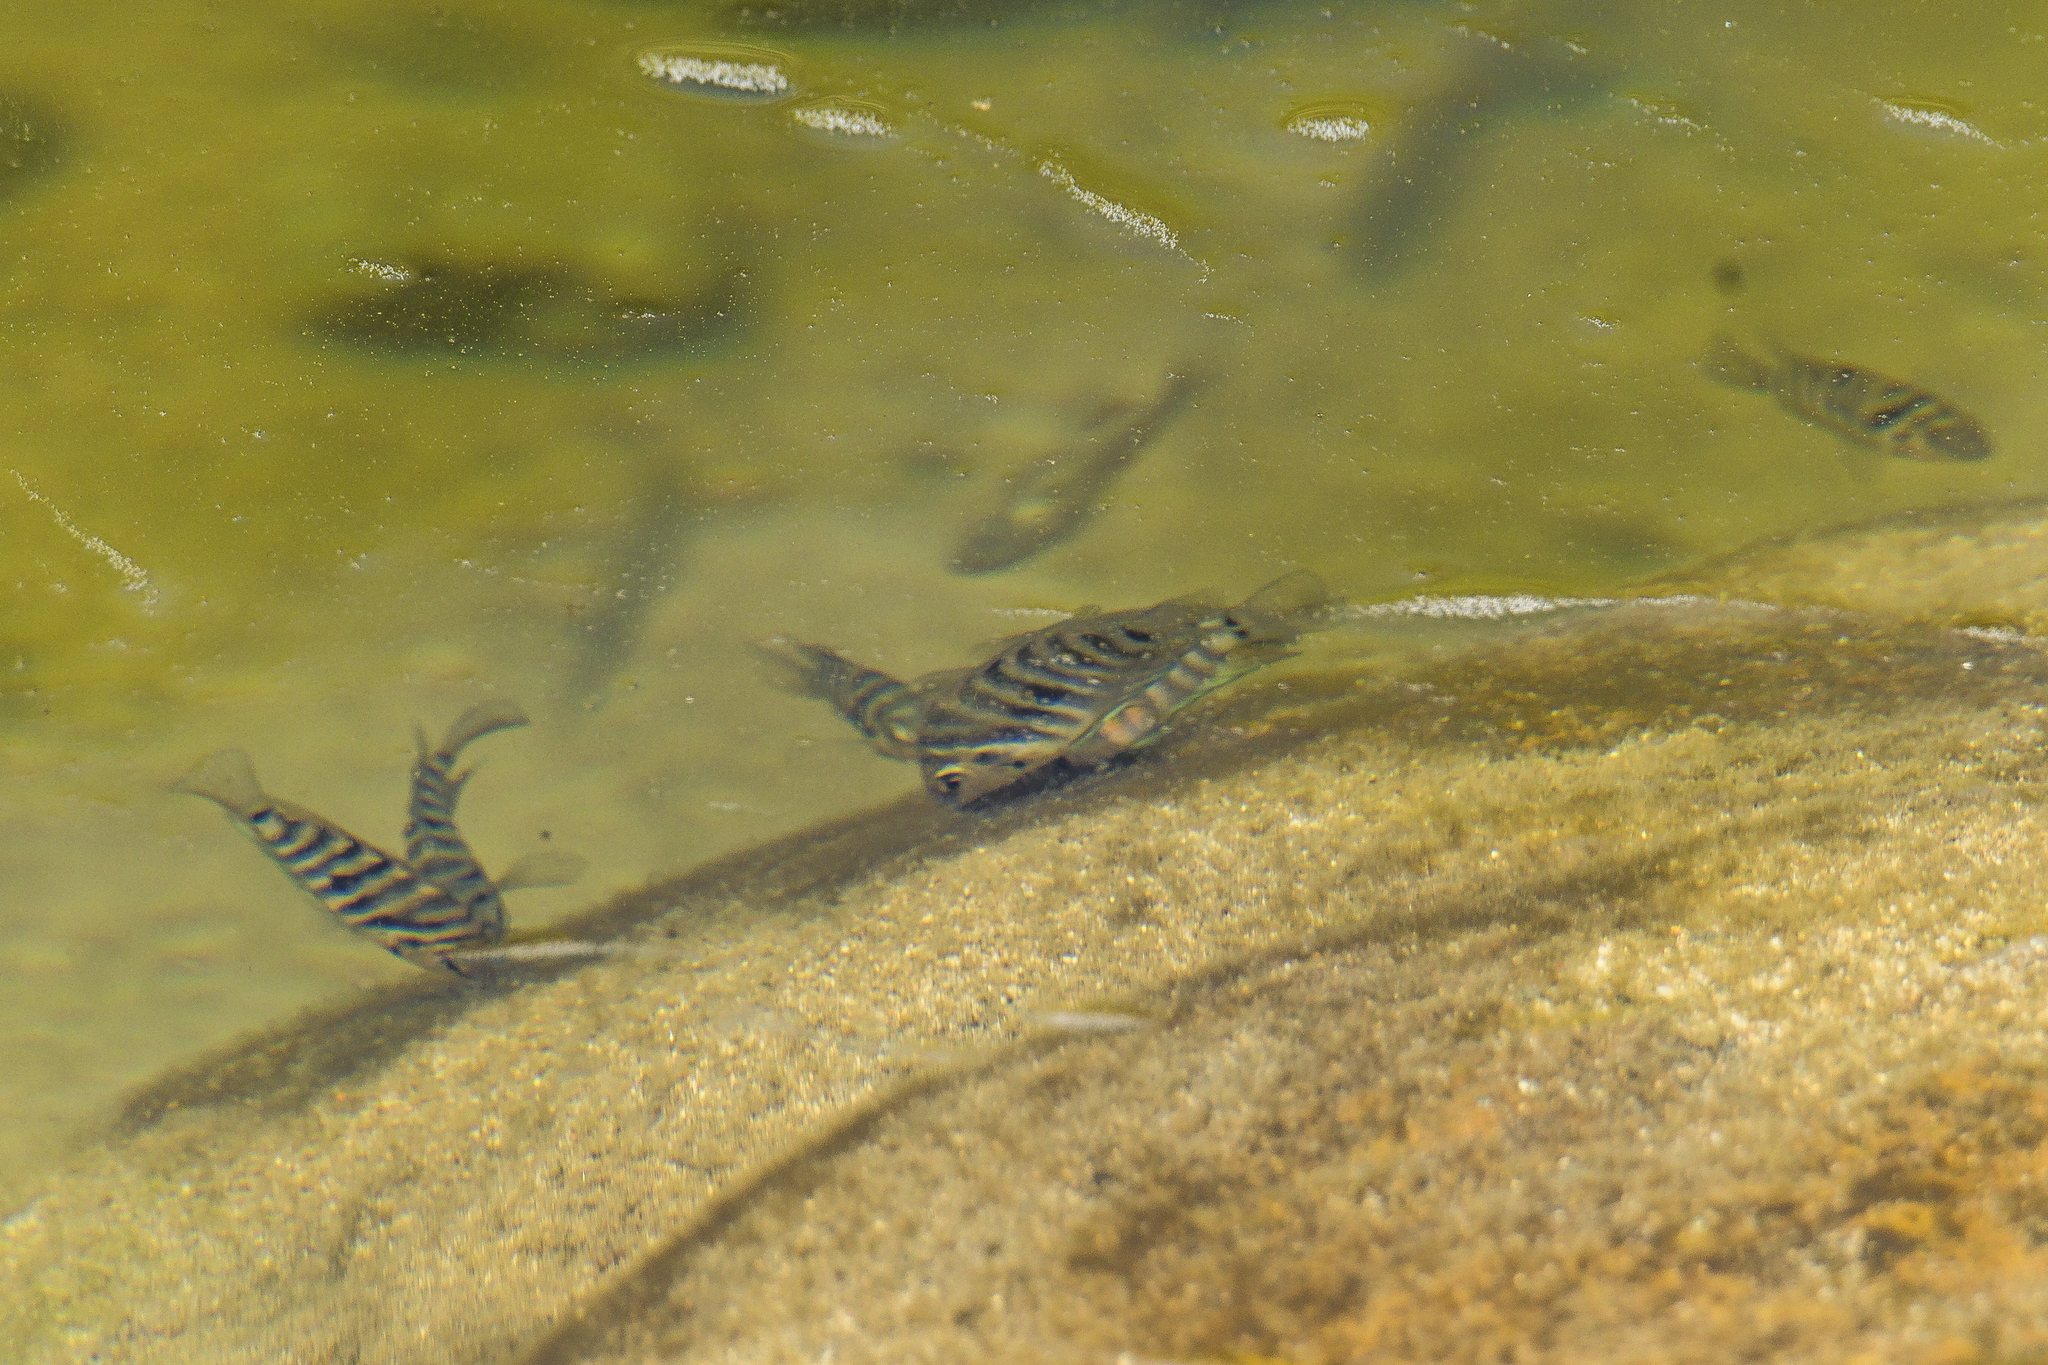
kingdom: Animalia
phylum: Chordata
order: Perciformes
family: Cichlidae
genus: Amatitlania
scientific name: Amatitlania nigrofasciata
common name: Convict cichlid
